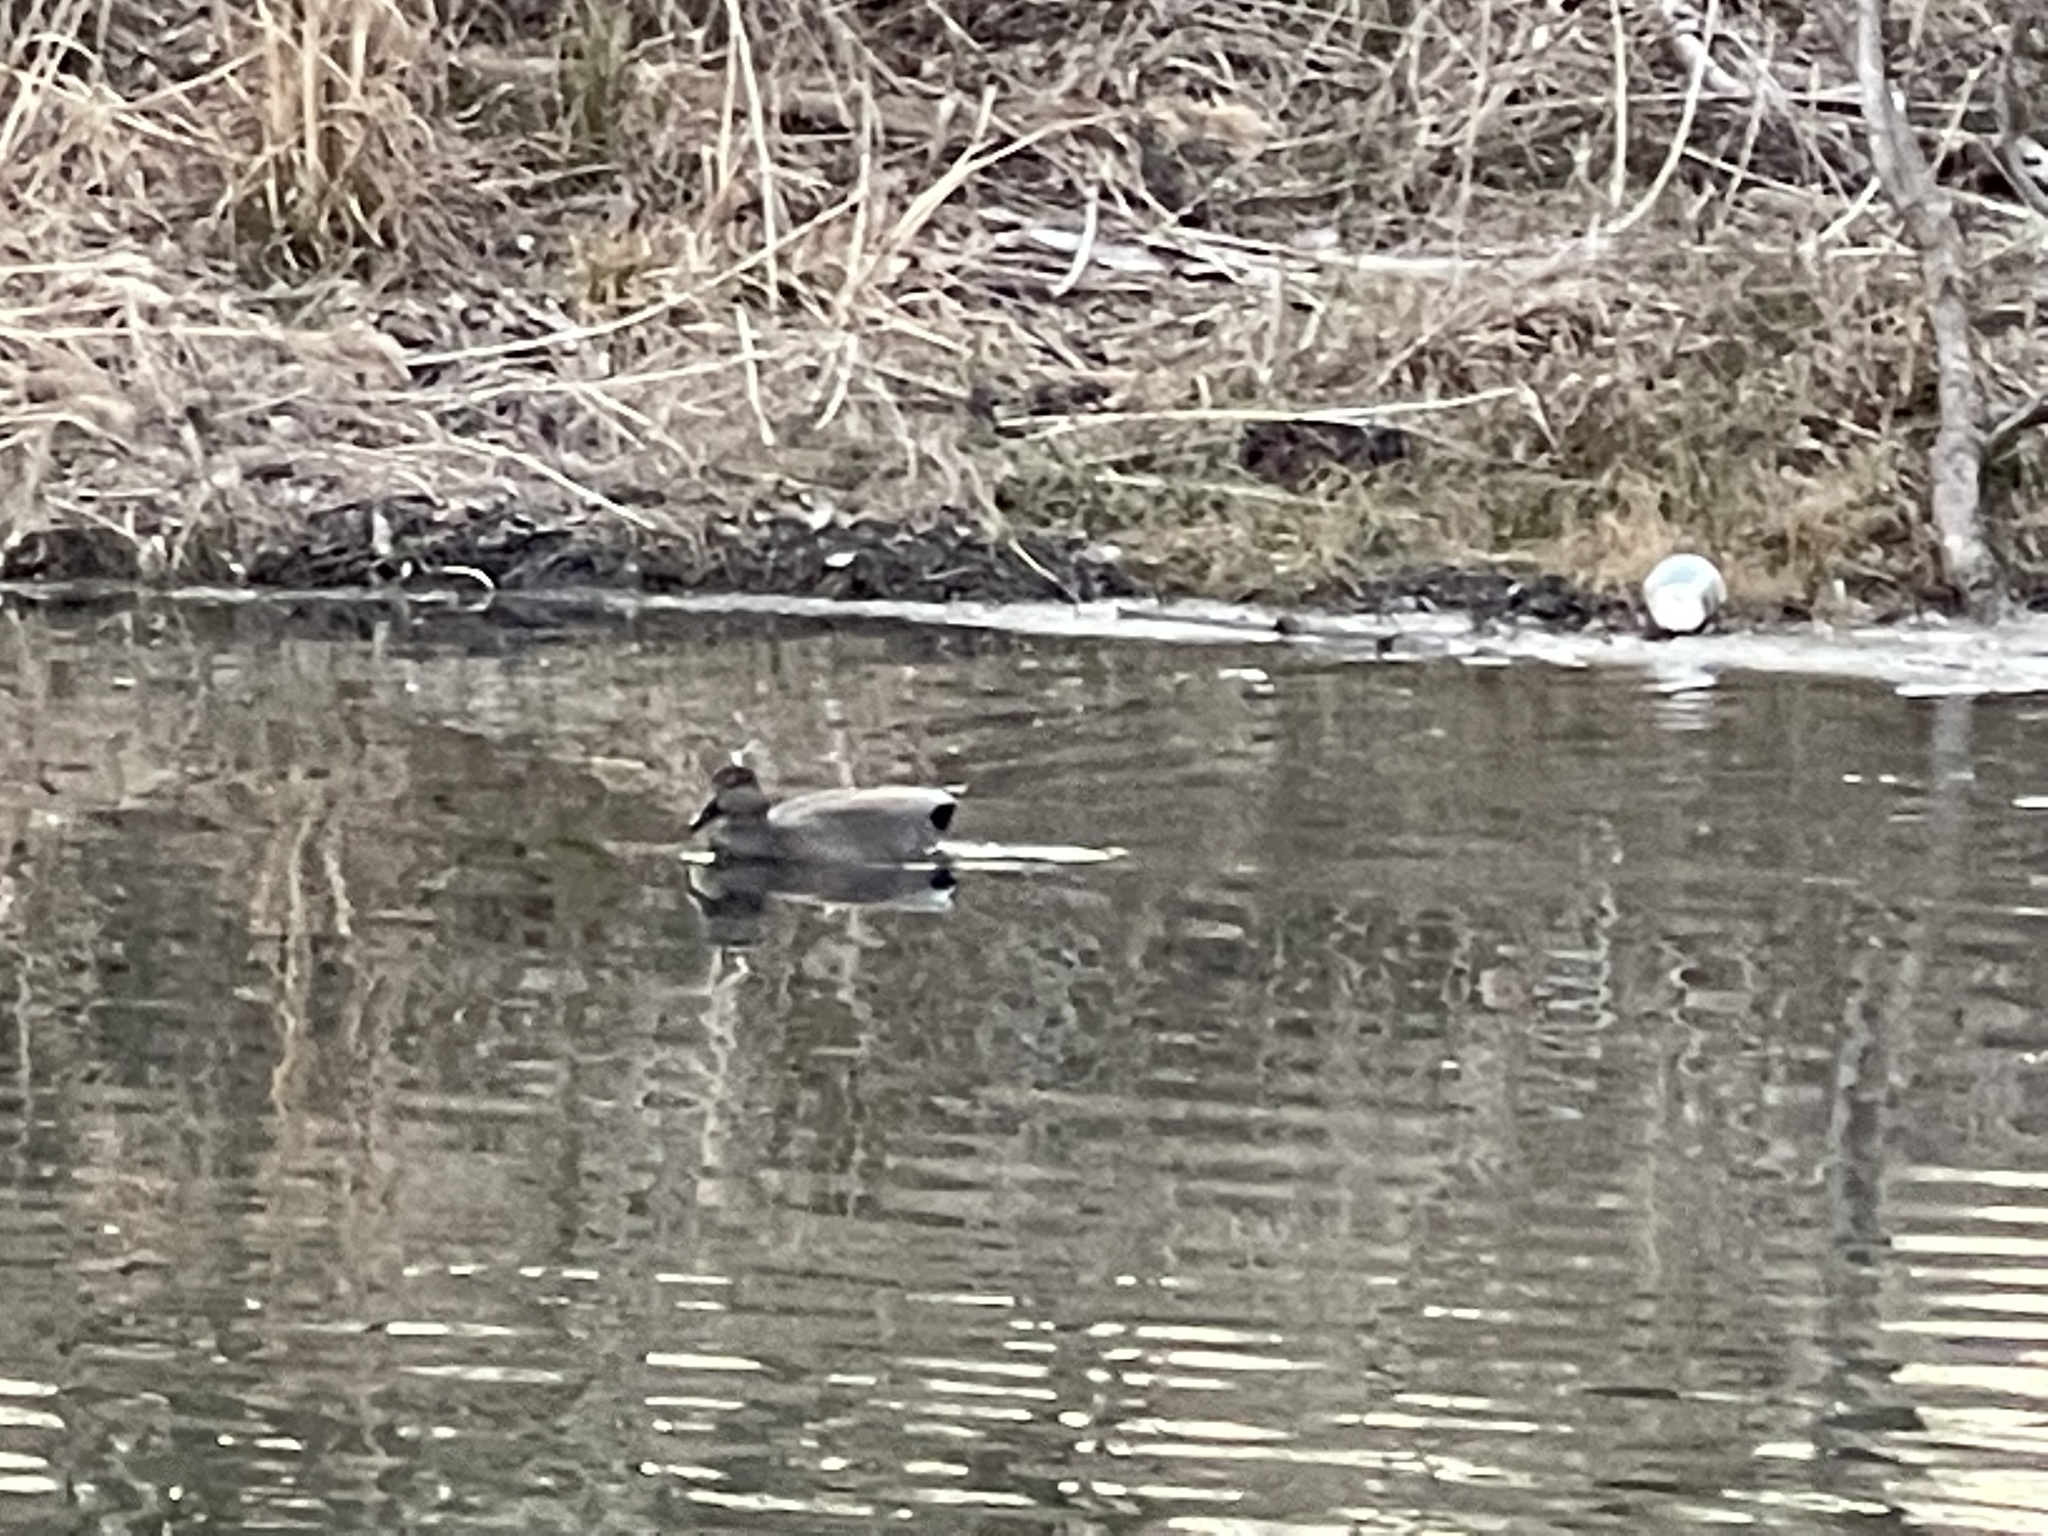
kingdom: Animalia
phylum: Chordata
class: Aves
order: Anseriformes
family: Anatidae
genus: Mareca
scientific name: Mareca strepera
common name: Gadwall
